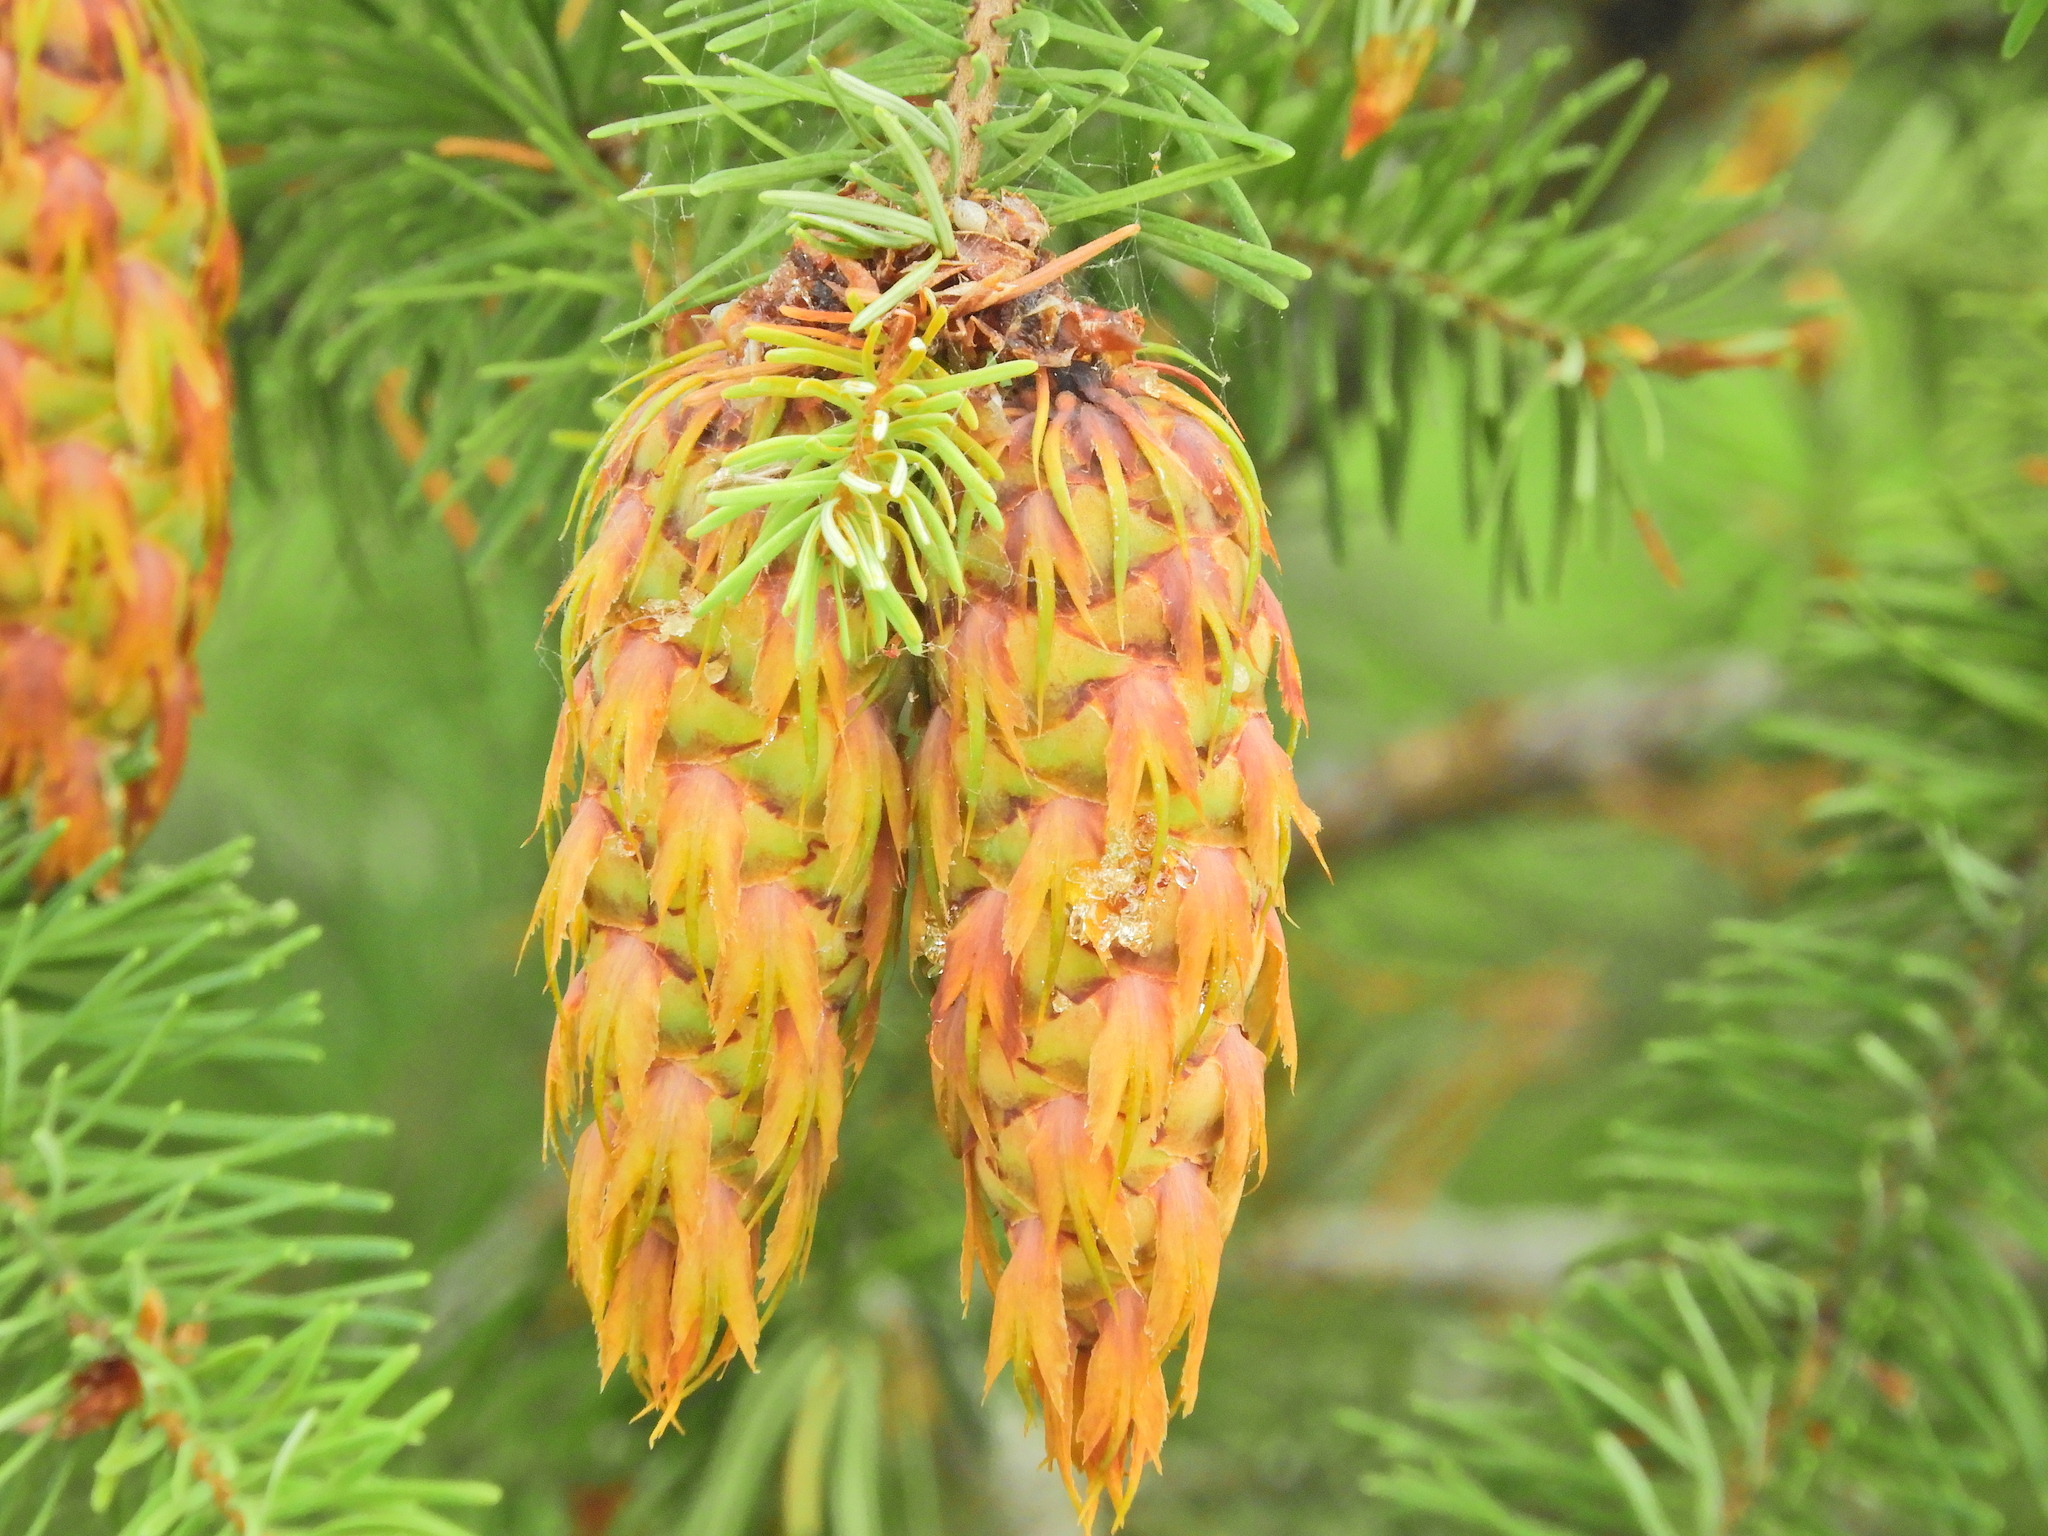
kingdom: Plantae
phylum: Tracheophyta
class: Pinopsida
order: Pinales
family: Pinaceae
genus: Pseudotsuga
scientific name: Pseudotsuga menziesii
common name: Douglas fir
